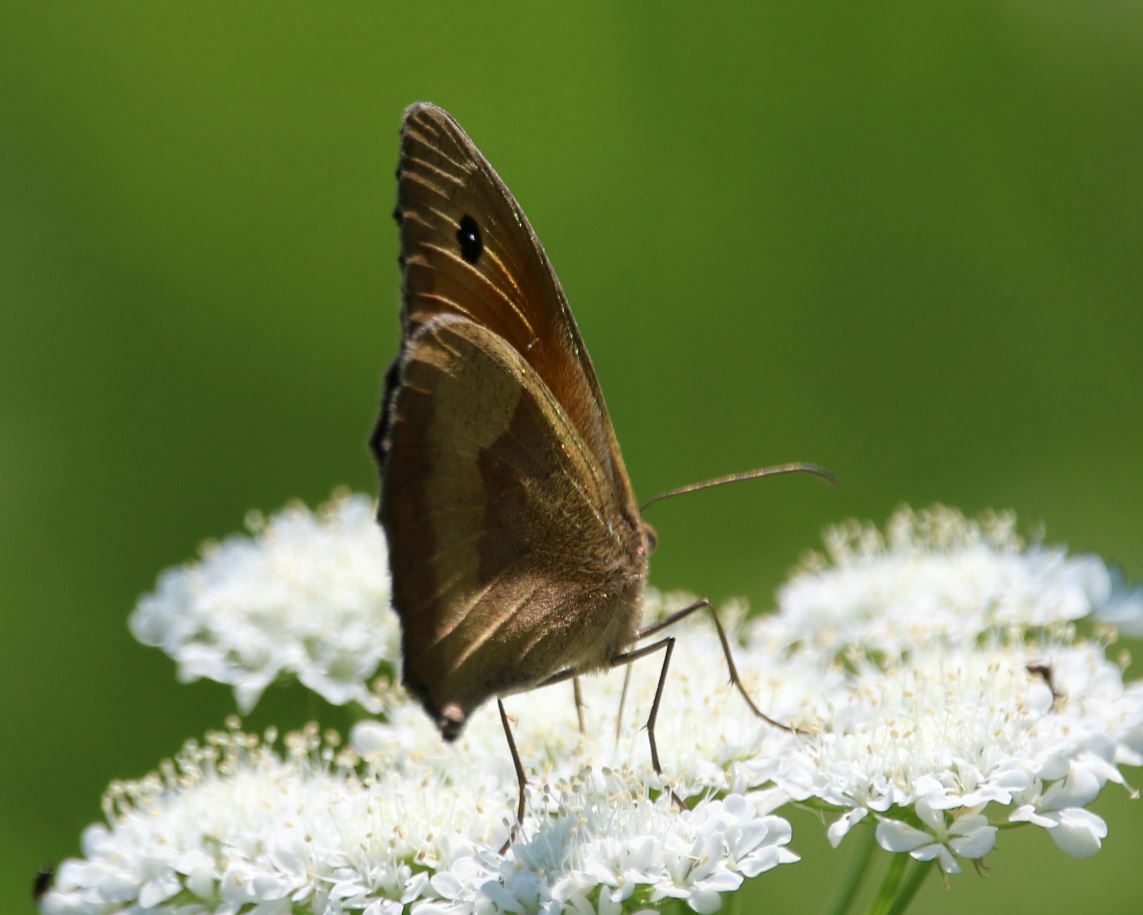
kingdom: Animalia
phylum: Arthropoda
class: Insecta
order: Lepidoptera
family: Nymphalidae
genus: Maniola
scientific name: Maniola jurtina
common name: Meadow brown
